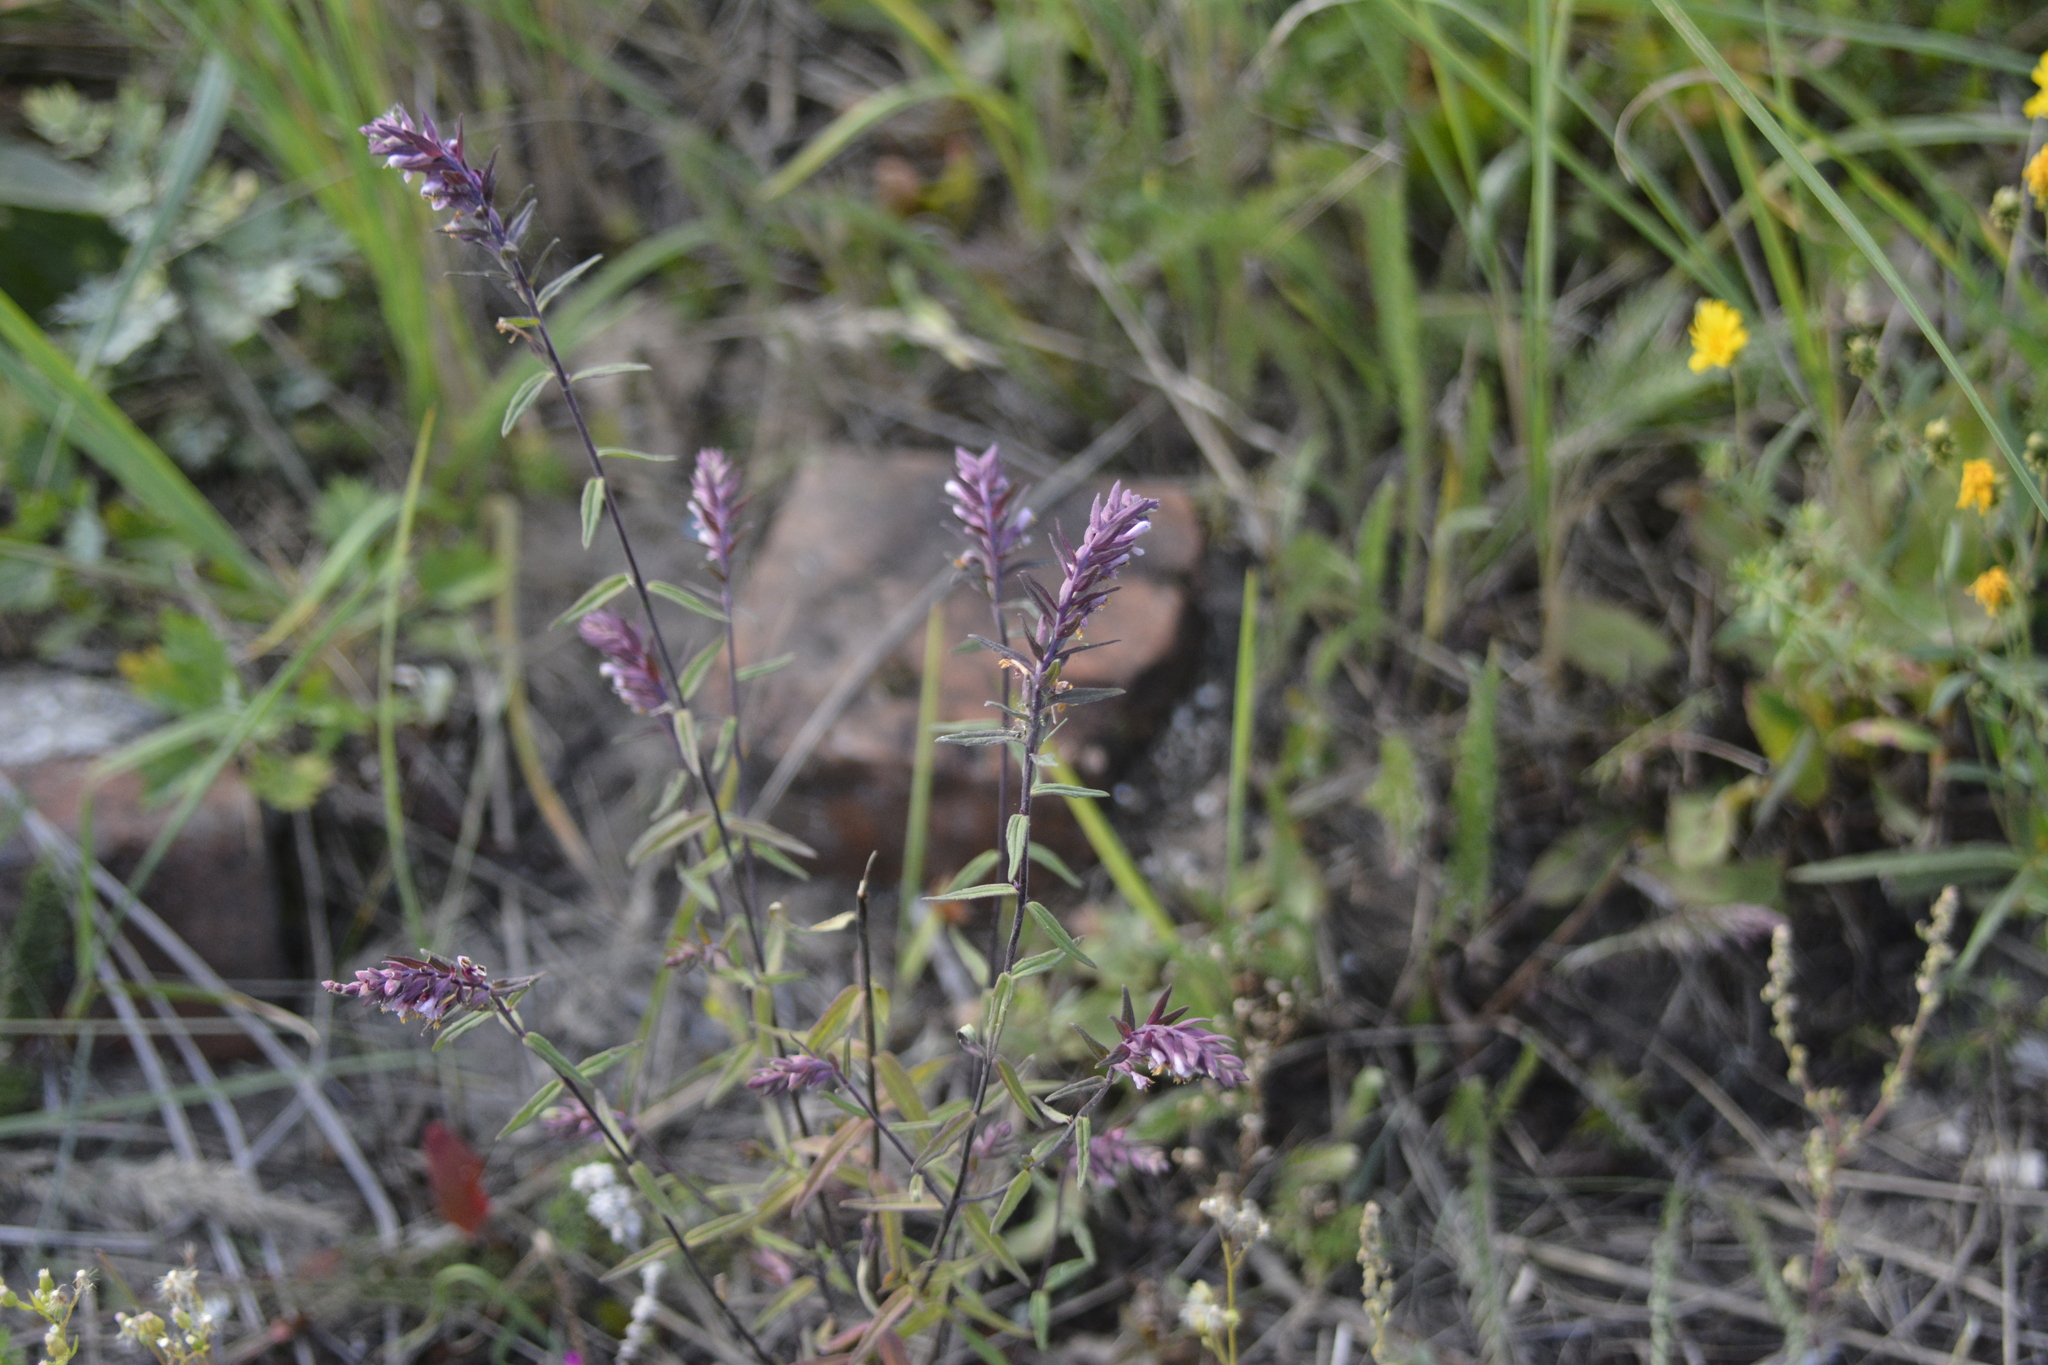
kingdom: Plantae
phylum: Tracheophyta
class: Magnoliopsida
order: Lamiales
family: Orobanchaceae
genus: Odontites
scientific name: Odontites vulgaris
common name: Broomrape
